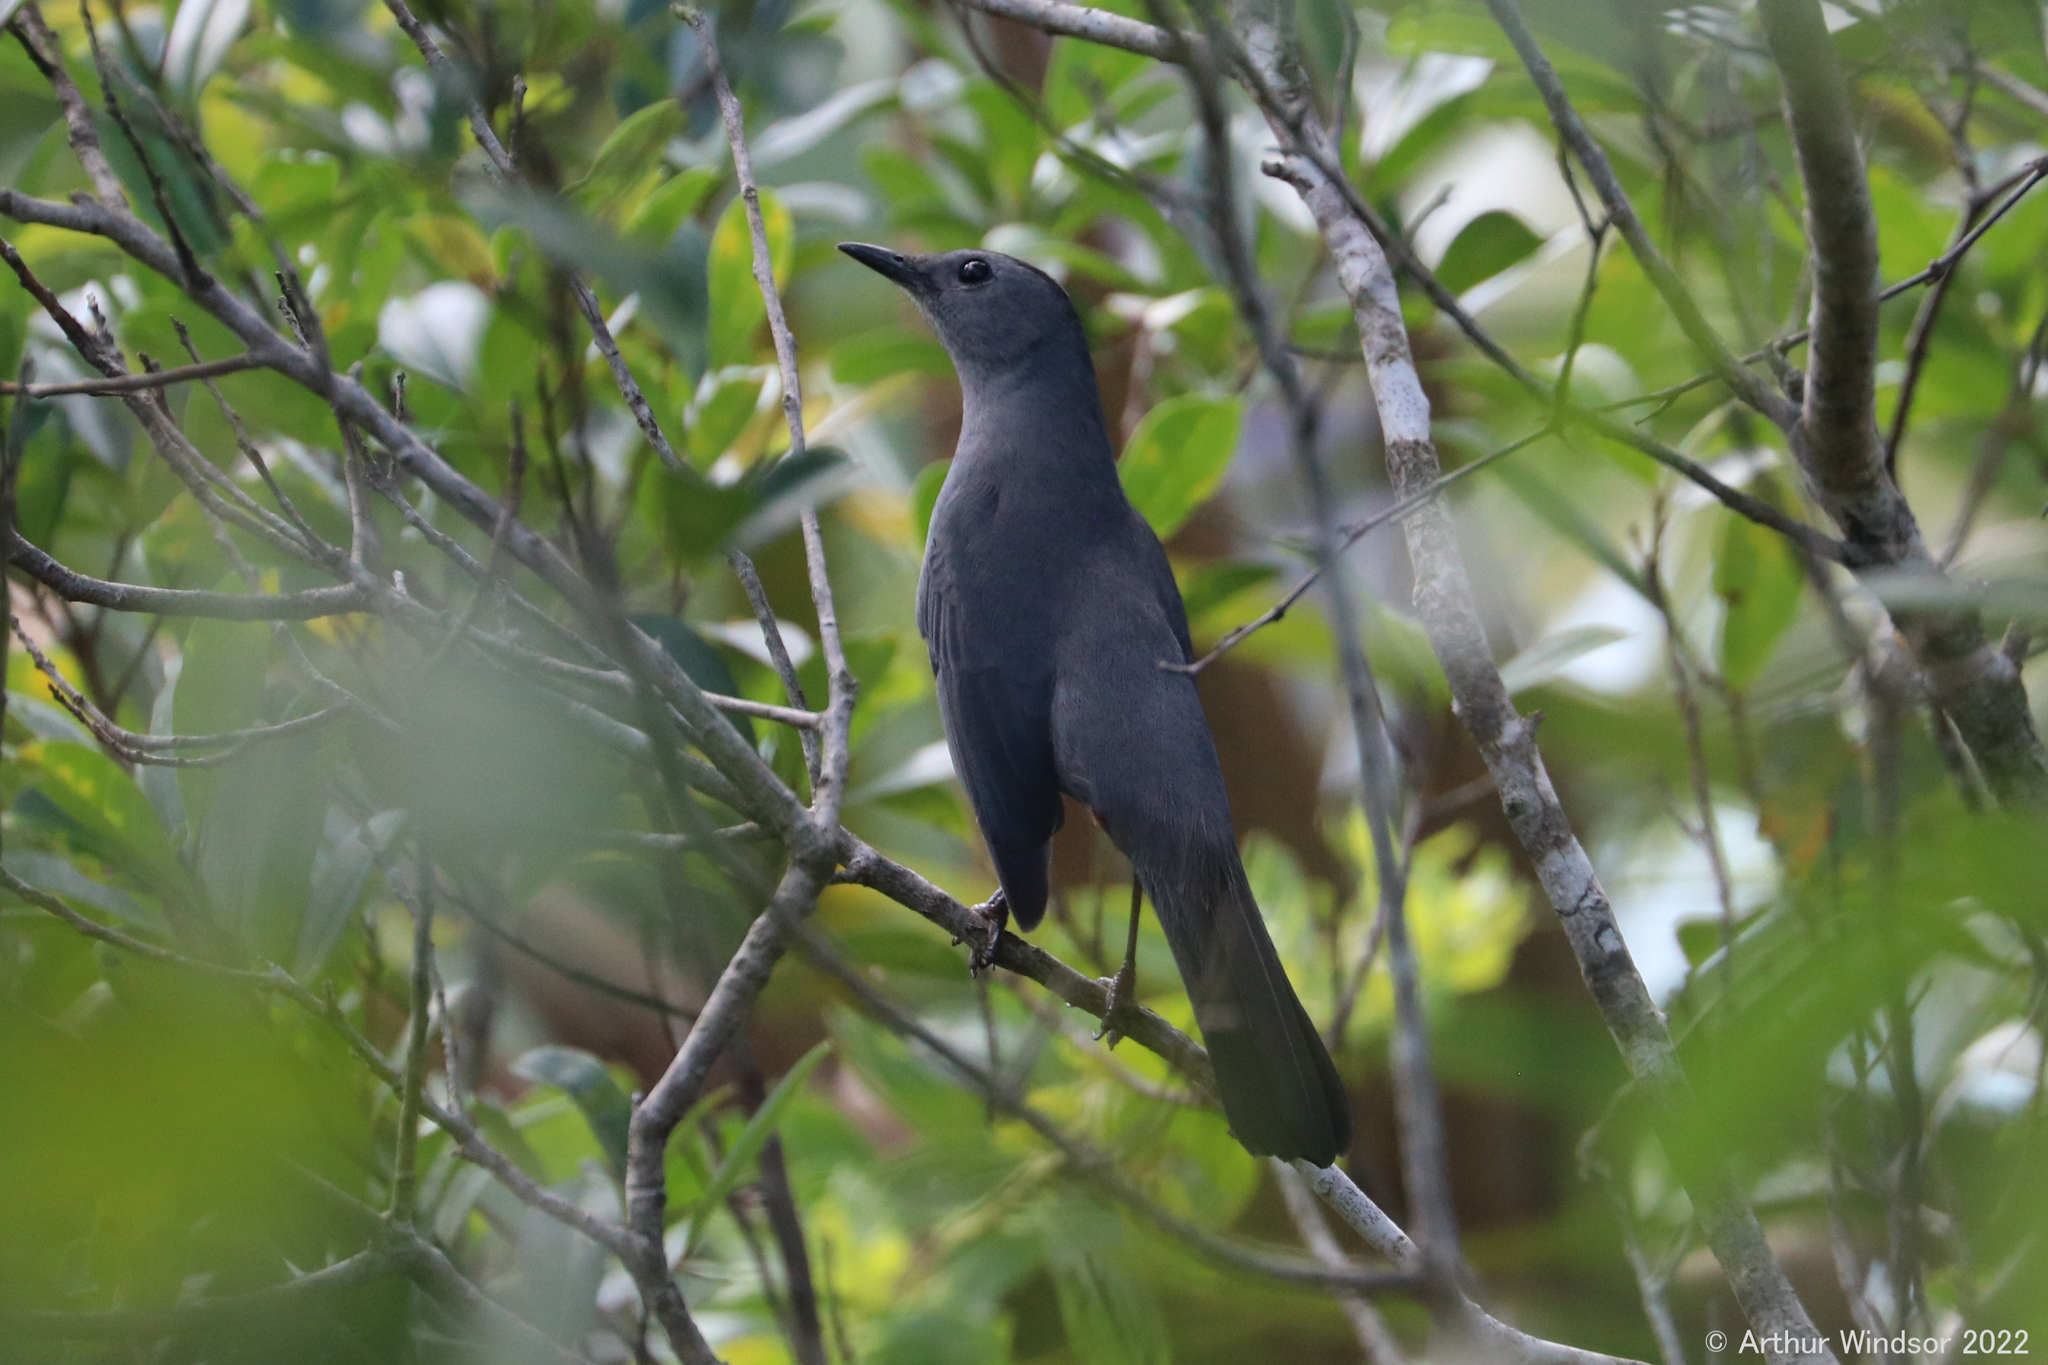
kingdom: Animalia
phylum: Chordata
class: Aves
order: Passeriformes
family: Mimidae
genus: Dumetella
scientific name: Dumetella carolinensis
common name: Gray catbird
